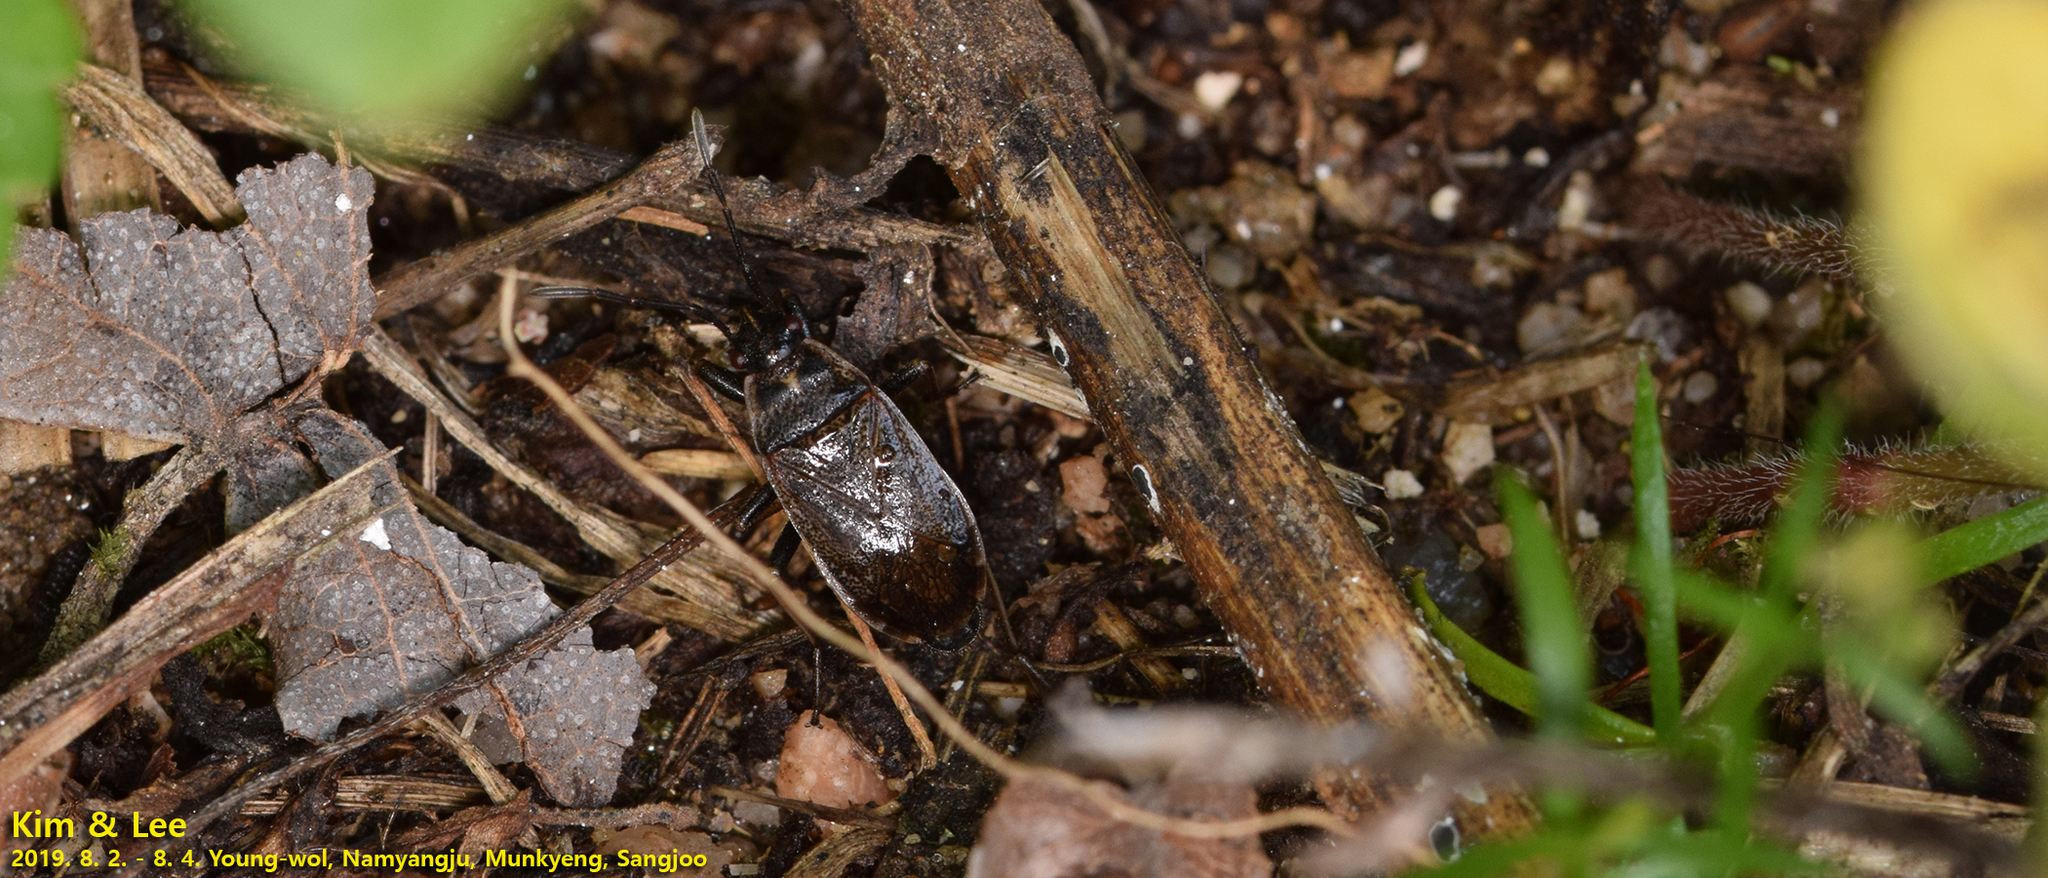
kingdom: Animalia
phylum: Arthropoda
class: Insecta
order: Hemiptera
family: Pyrrhocoridae
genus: Pyrrhocoris
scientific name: Pyrrhocoris sibiricus
